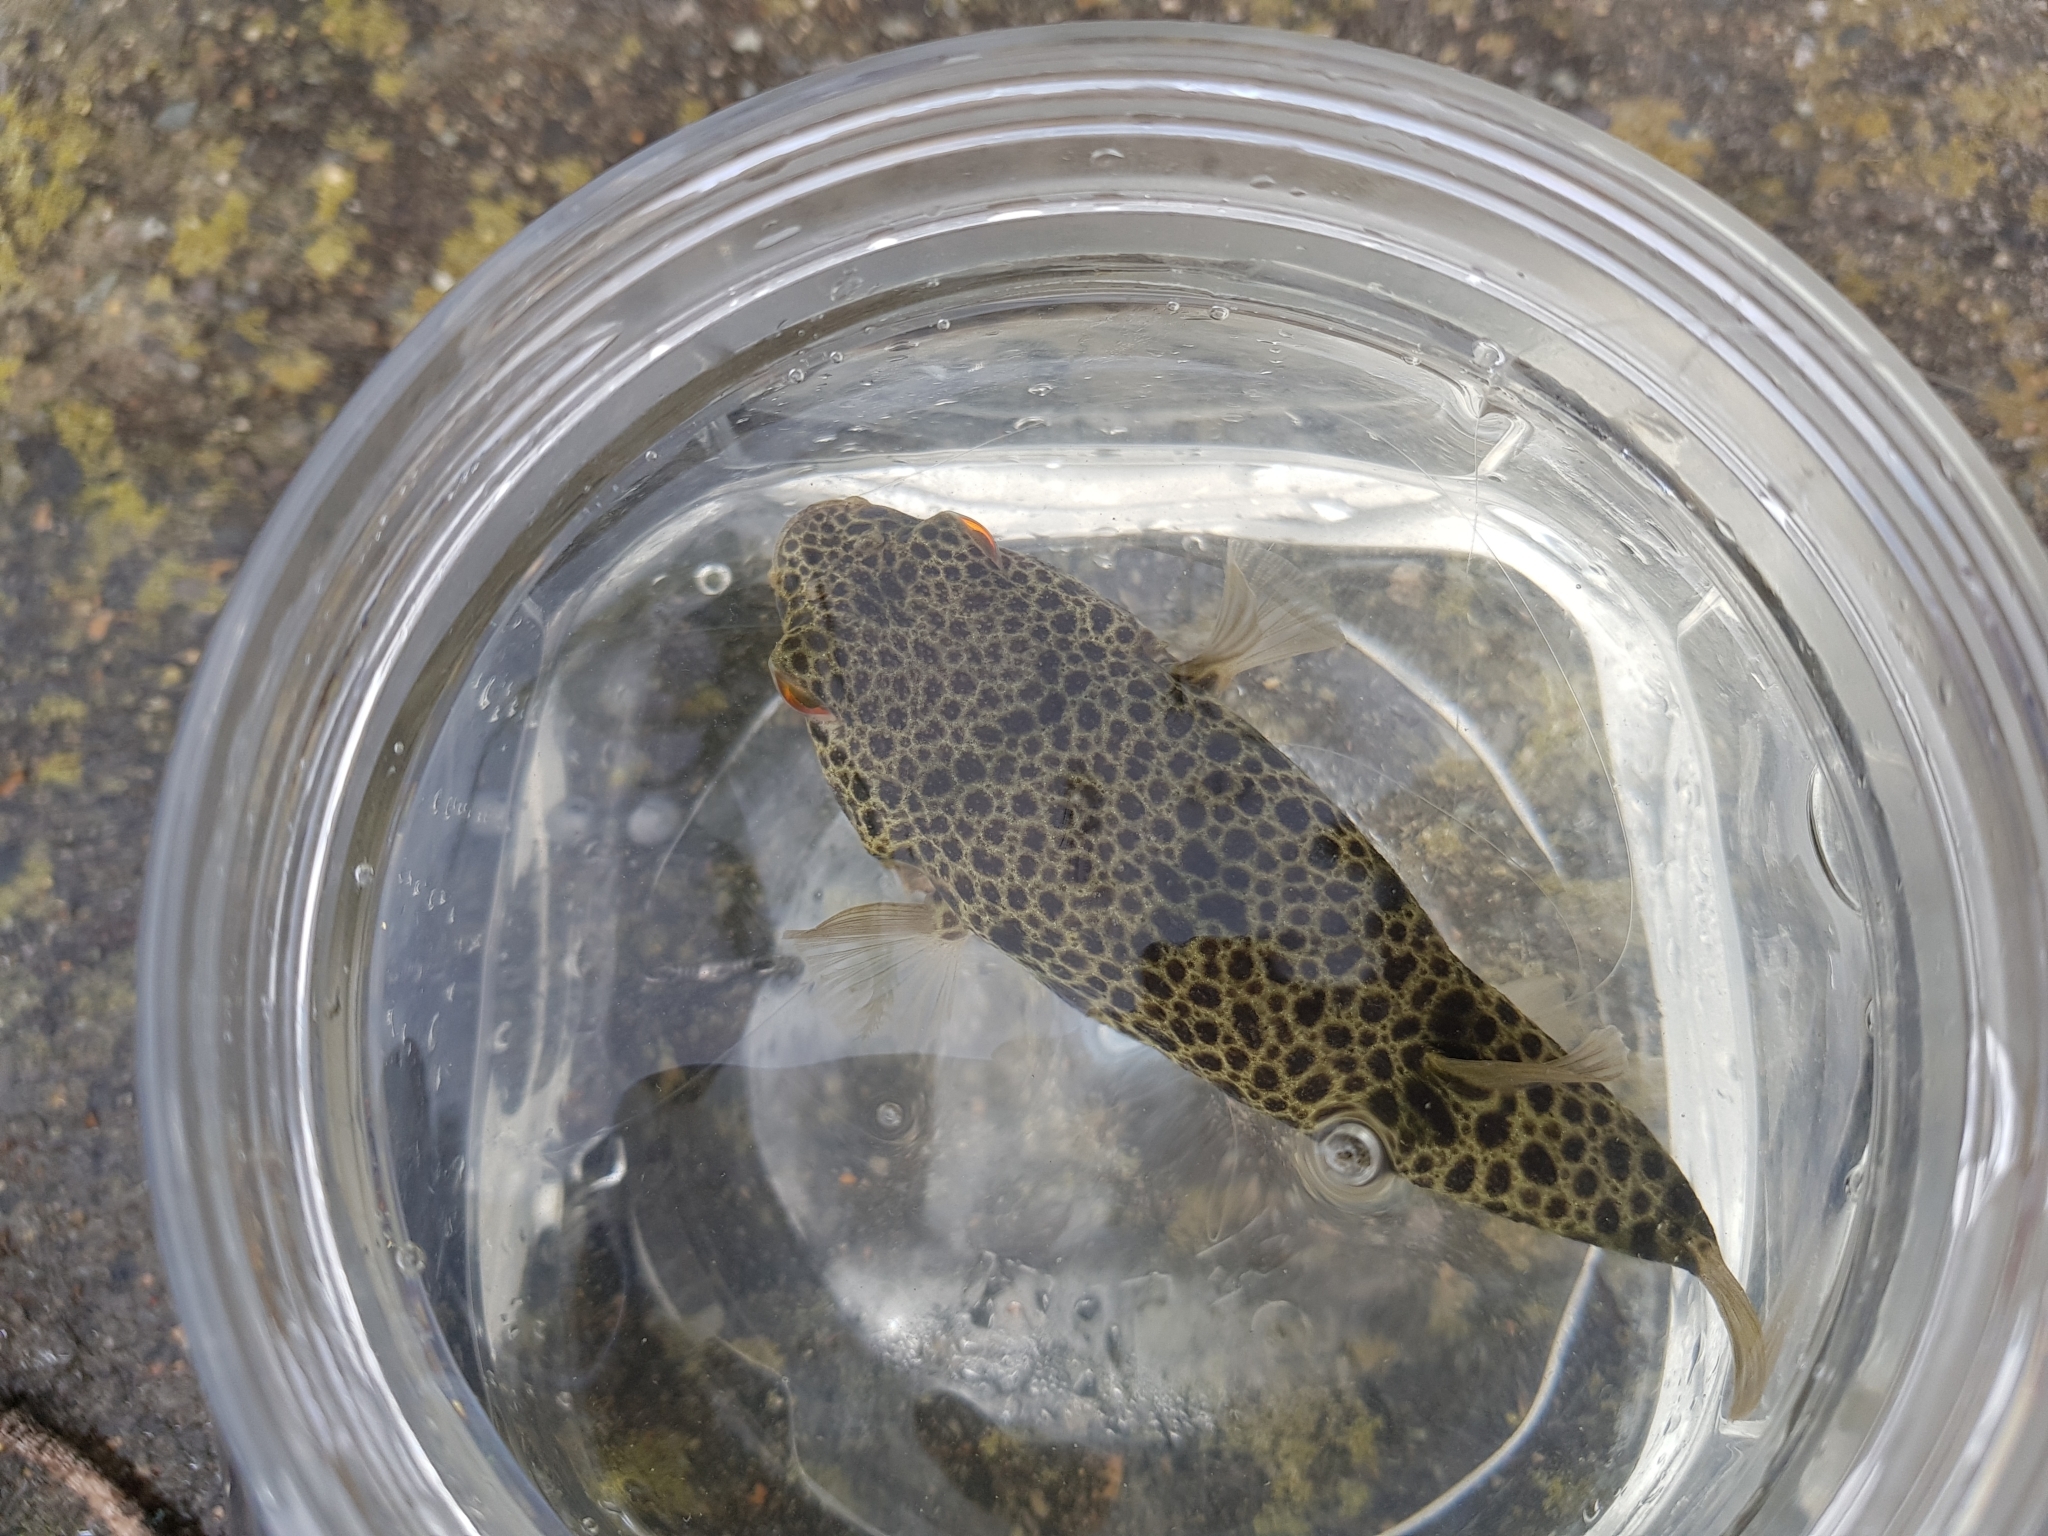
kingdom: Animalia
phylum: Chordata
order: Tetraodontiformes
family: Tetraodontidae
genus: Tetractenos
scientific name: Tetractenos hamiltoni
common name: Common toadfish
